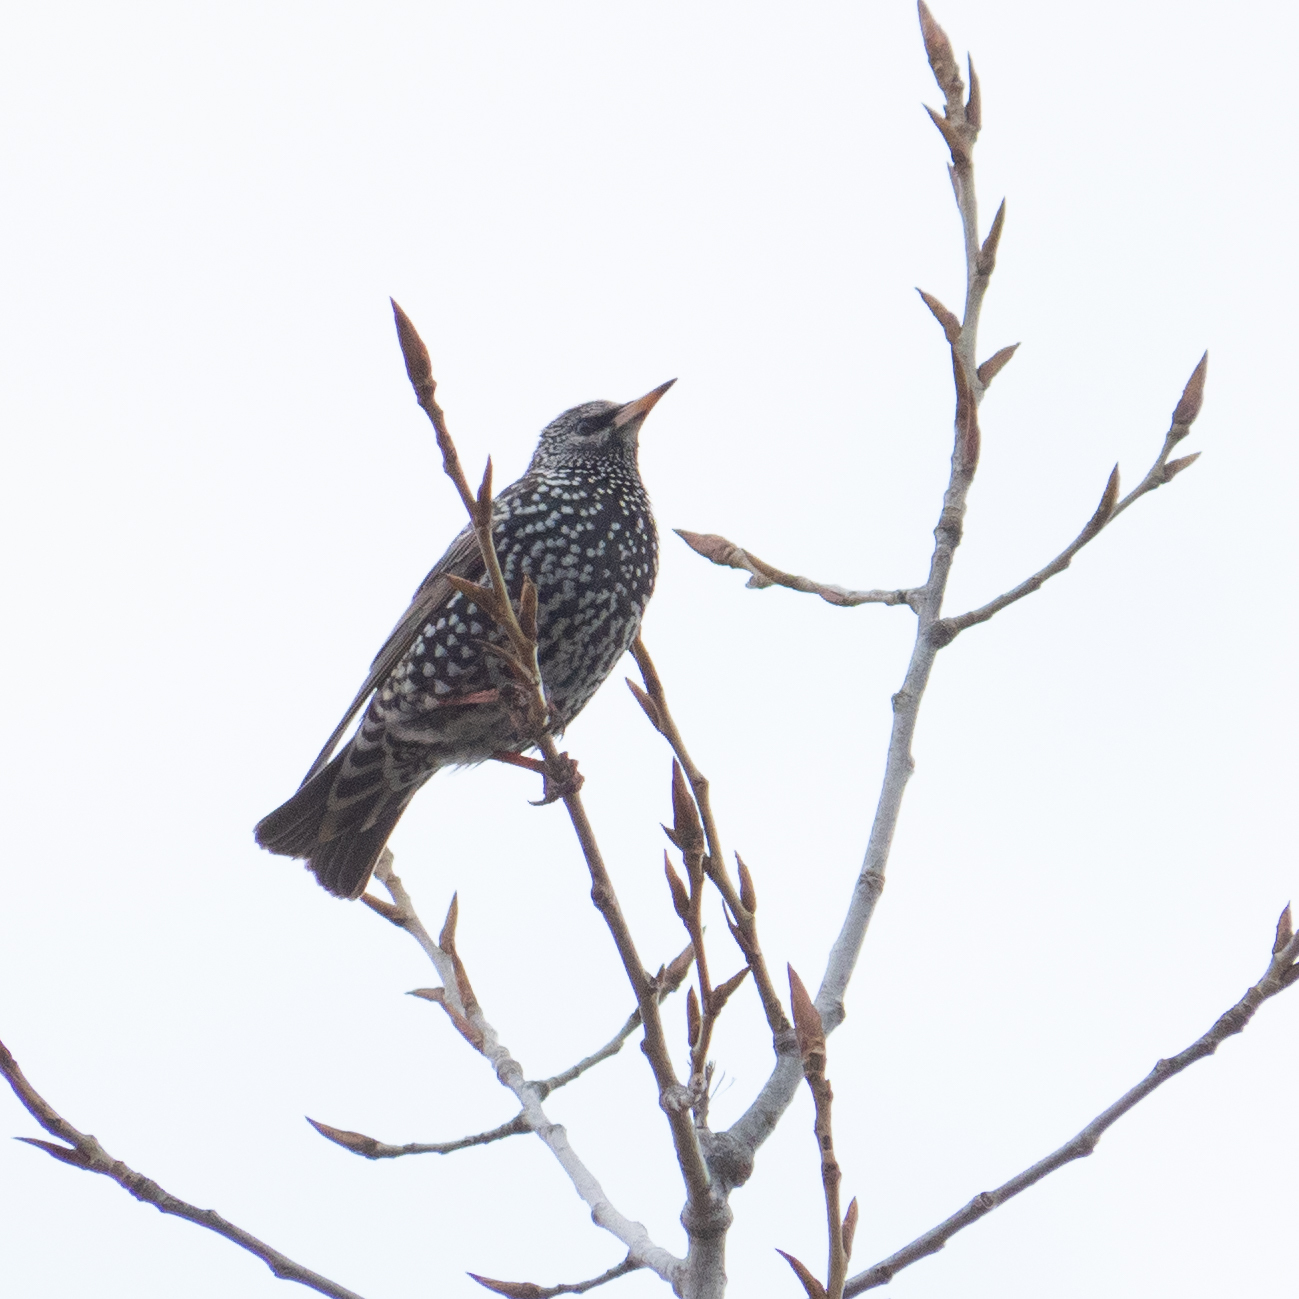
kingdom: Animalia
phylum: Chordata
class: Aves
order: Passeriformes
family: Sturnidae
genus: Sturnus
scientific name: Sturnus vulgaris
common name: Common starling
